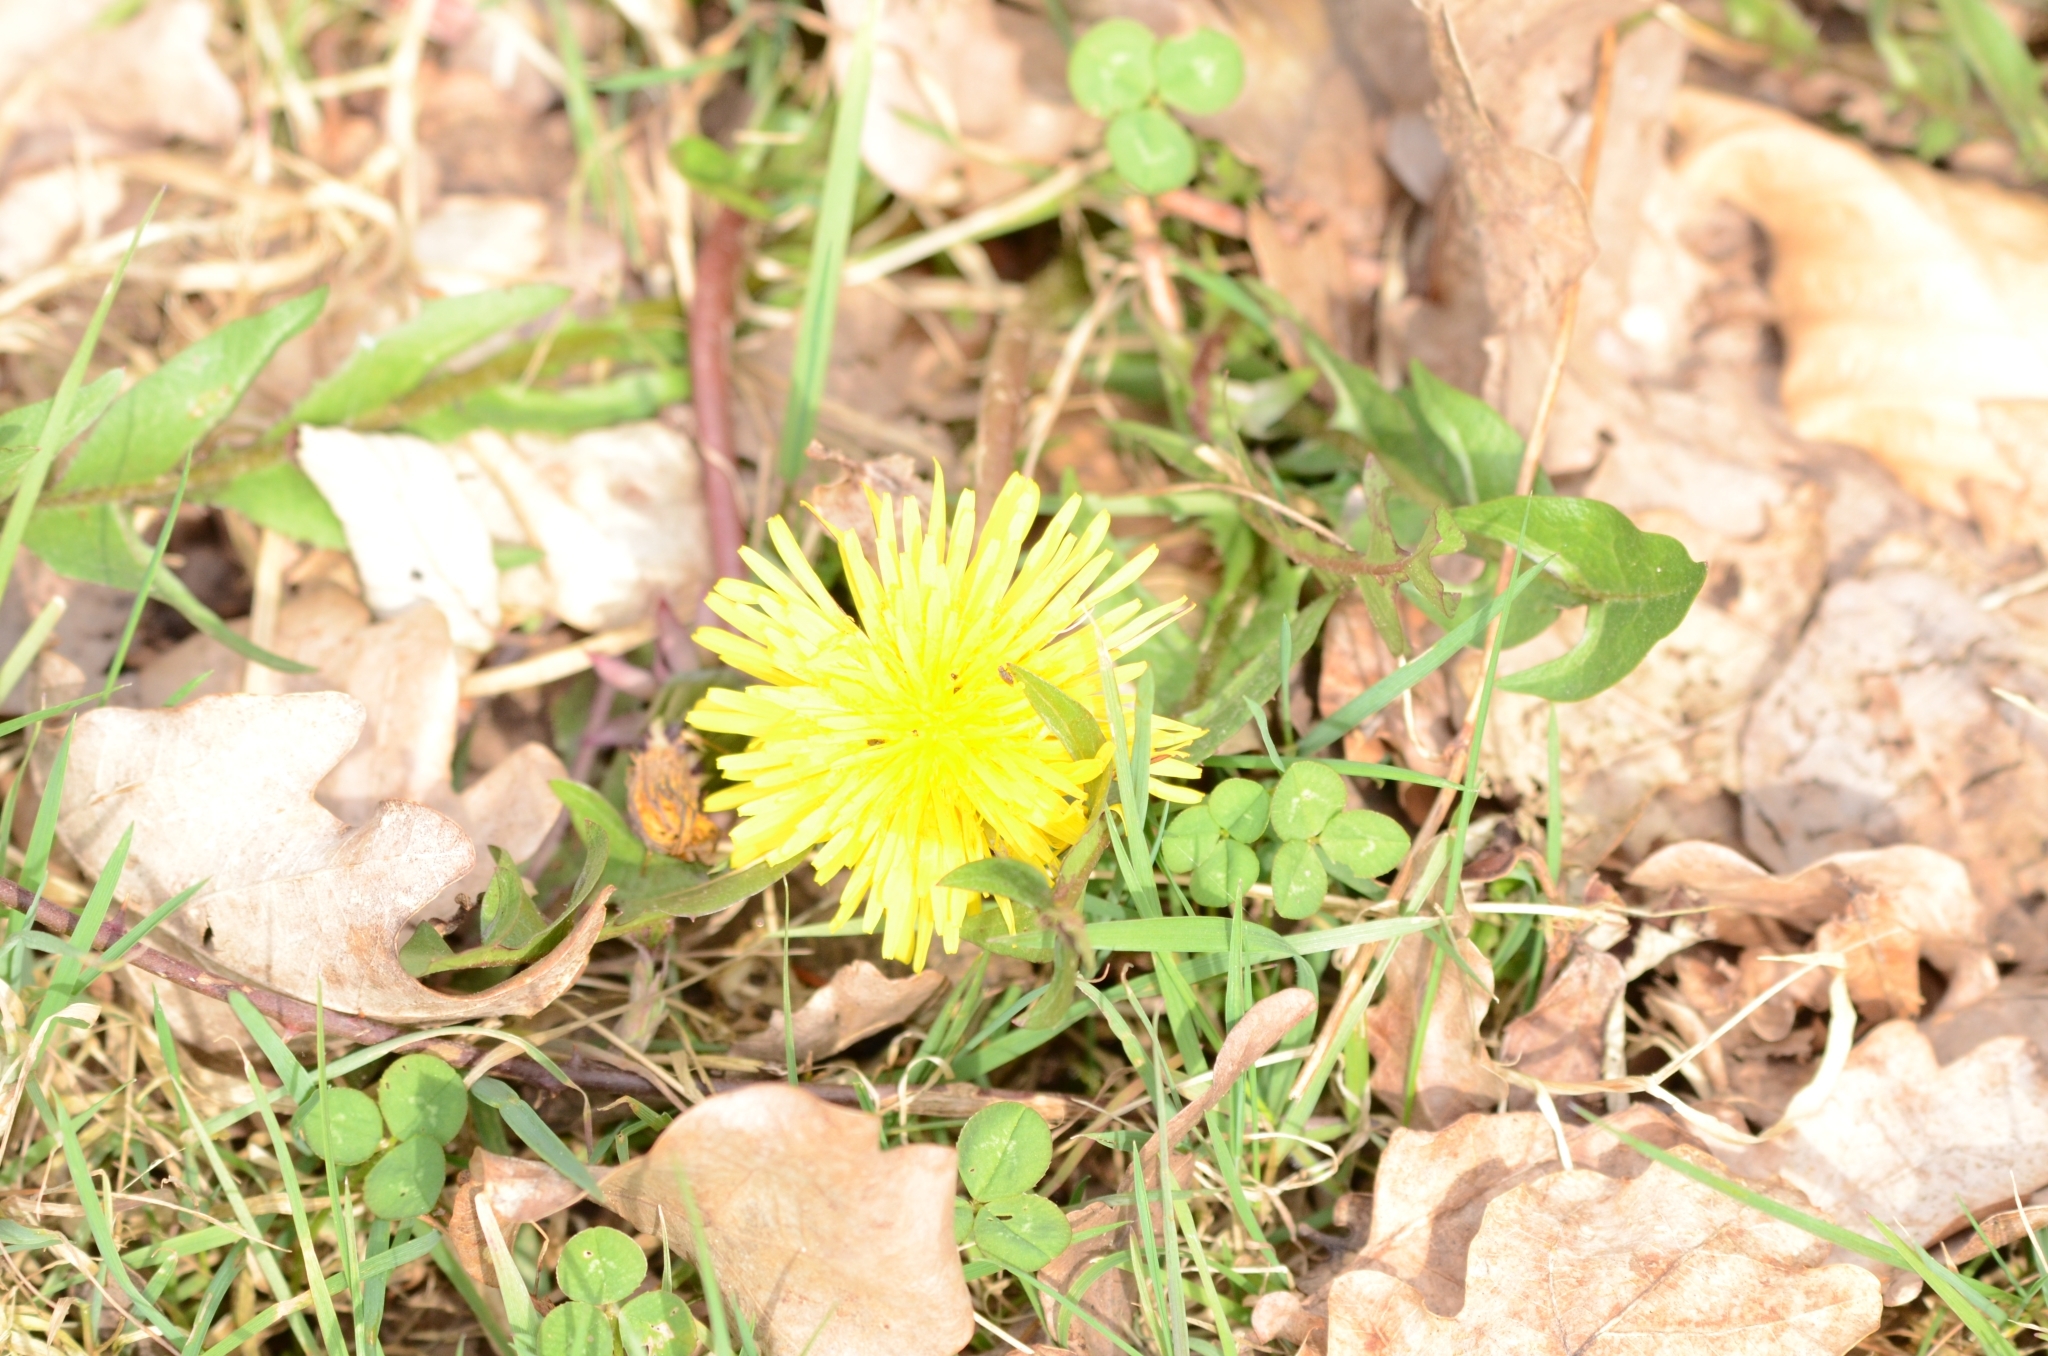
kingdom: Plantae
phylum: Tracheophyta
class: Magnoliopsida
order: Asterales
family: Asteraceae
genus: Taraxacum
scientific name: Taraxacum officinale
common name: Common dandelion
